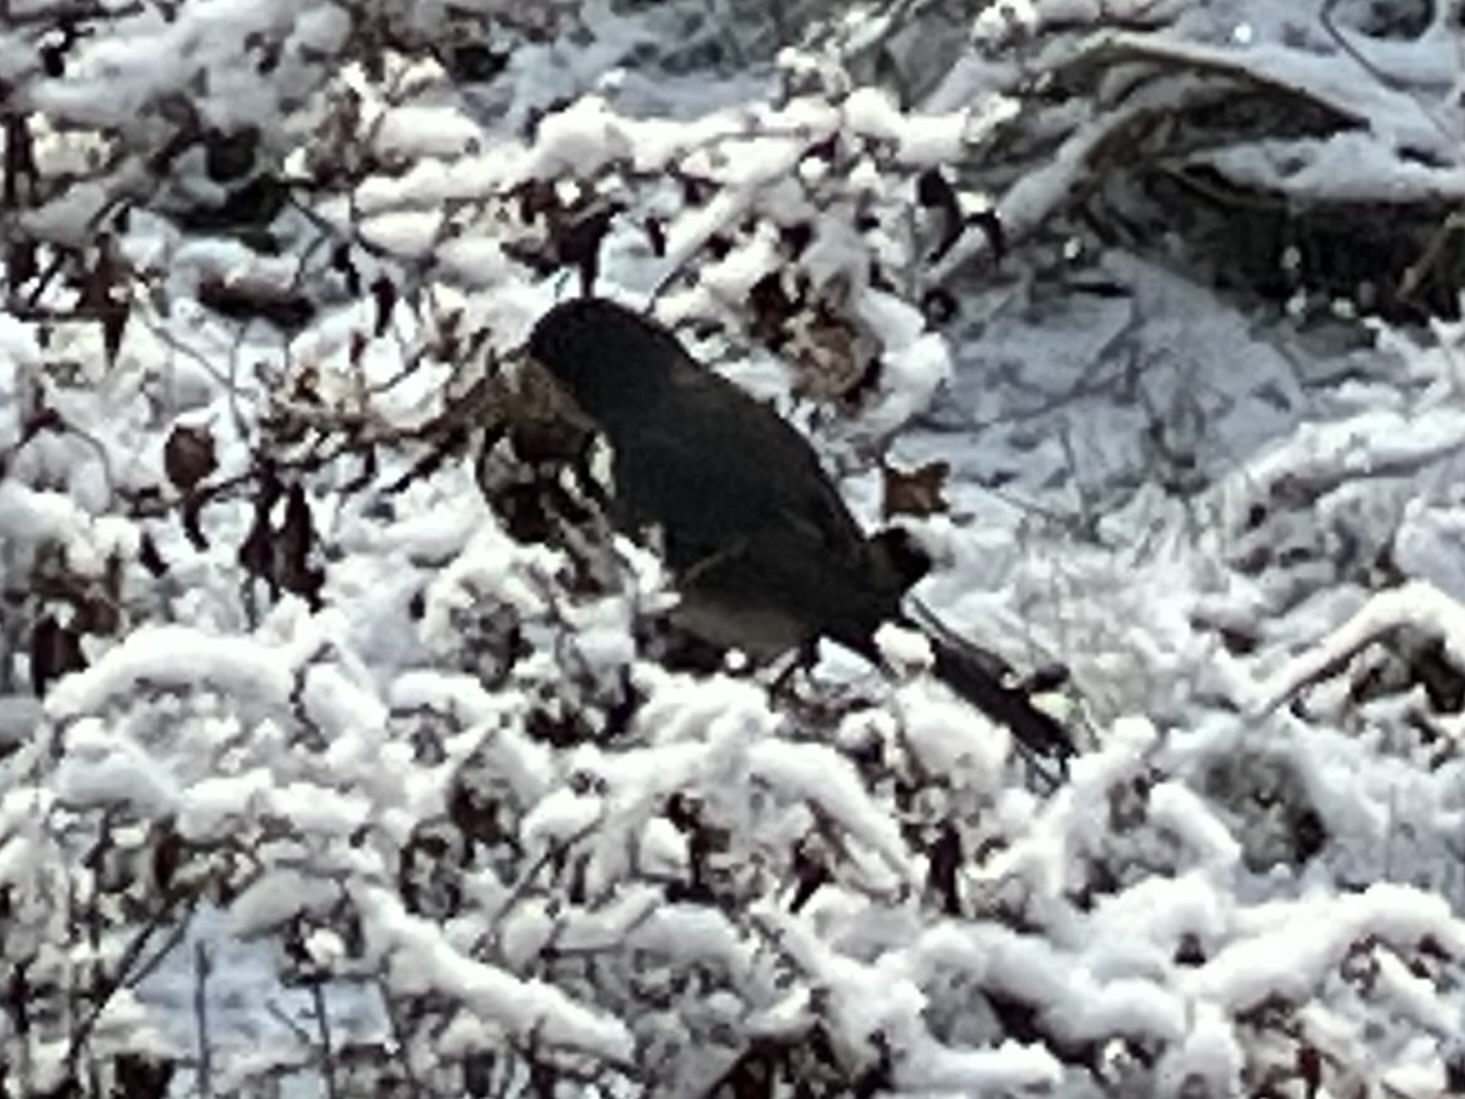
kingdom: Animalia
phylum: Chordata
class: Aves
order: Passeriformes
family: Passerellidae
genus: Junco
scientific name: Junco hyemalis
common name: Dark-eyed junco
